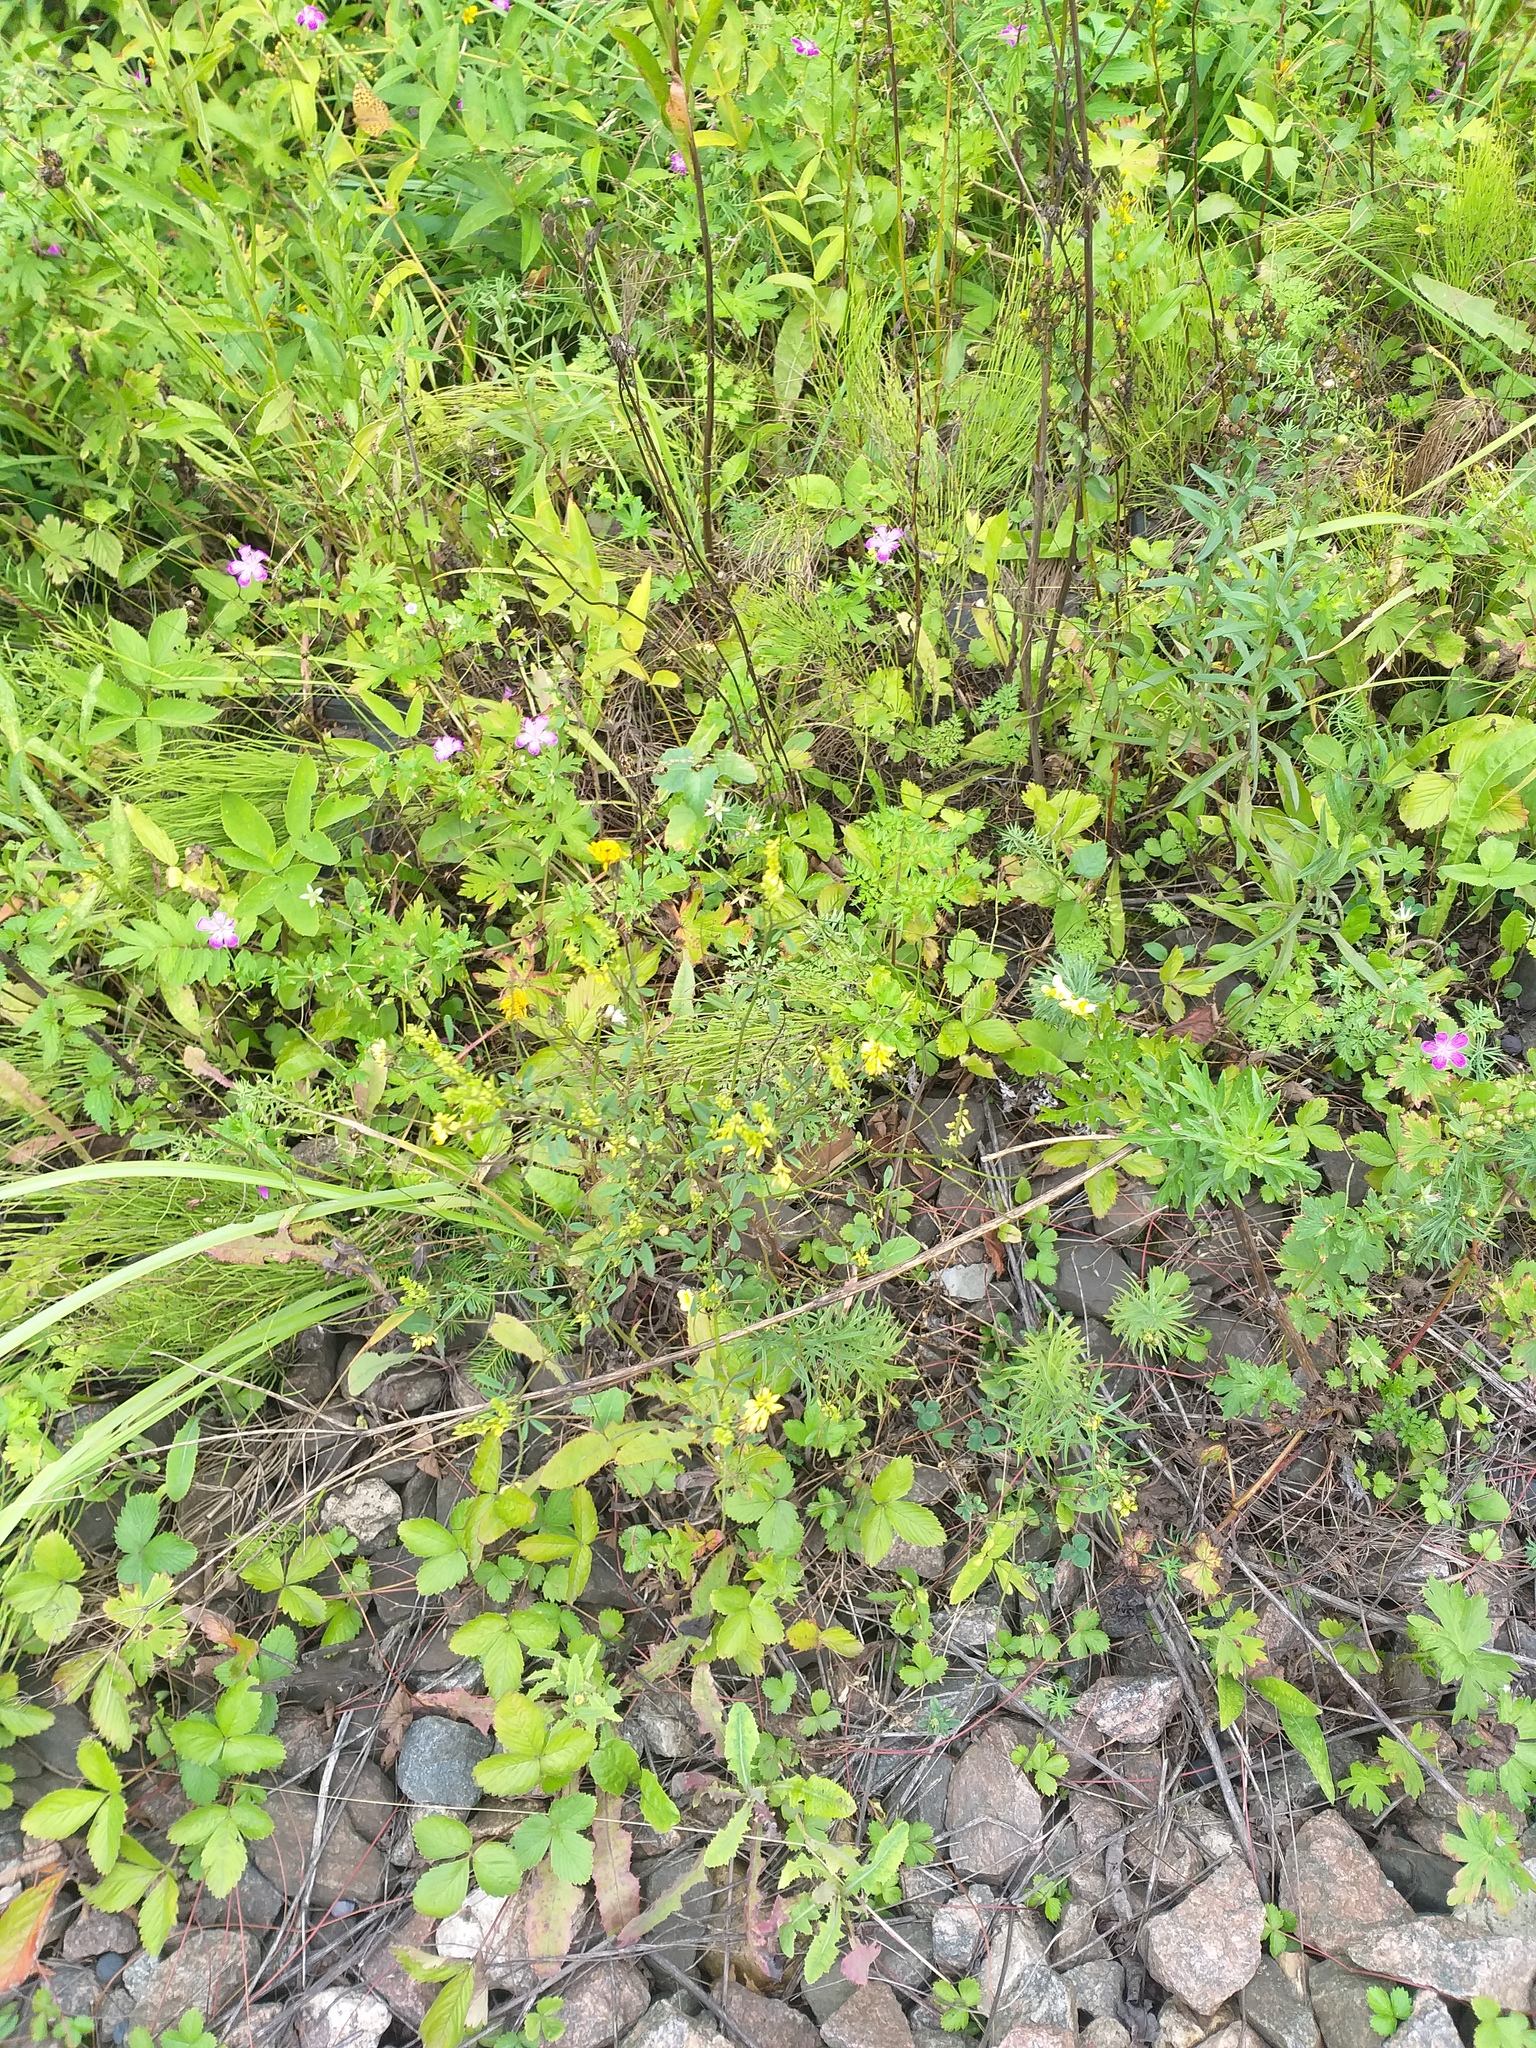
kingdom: Plantae
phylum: Tracheophyta
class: Magnoliopsida
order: Fabales
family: Fabaceae
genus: Melilotus
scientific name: Melilotus officinalis
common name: Sweetclover
